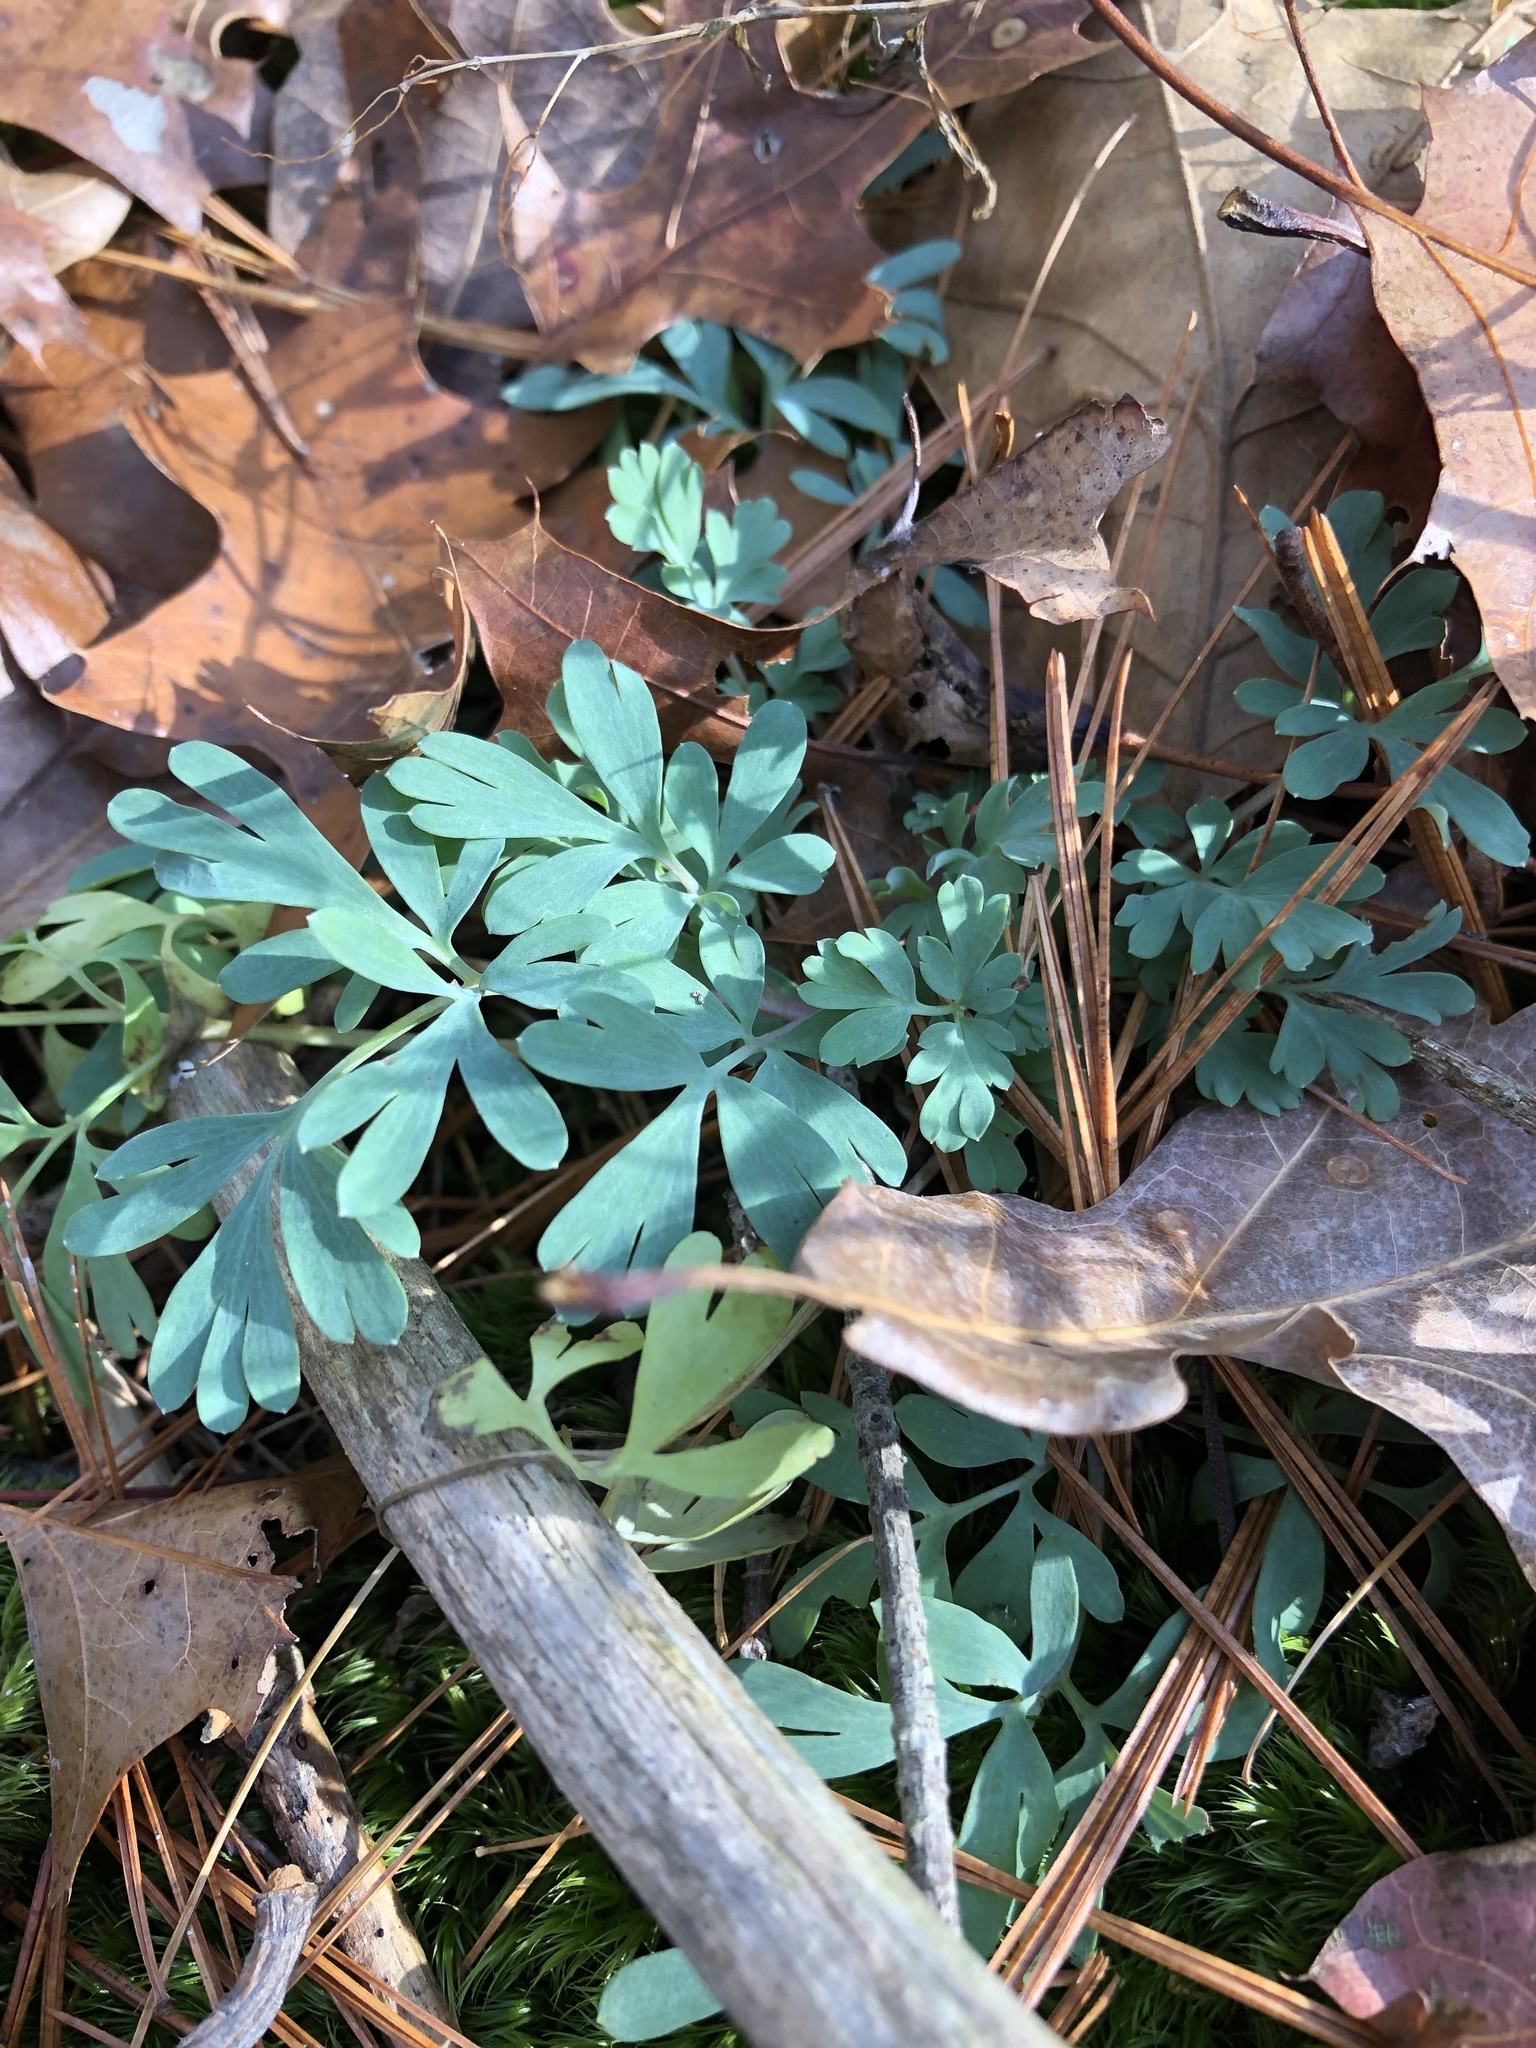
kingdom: Plantae
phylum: Tracheophyta
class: Magnoliopsida
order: Ranunculales
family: Papaveraceae
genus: Capnoides
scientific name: Capnoides sempervirens
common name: Rock harlequin
